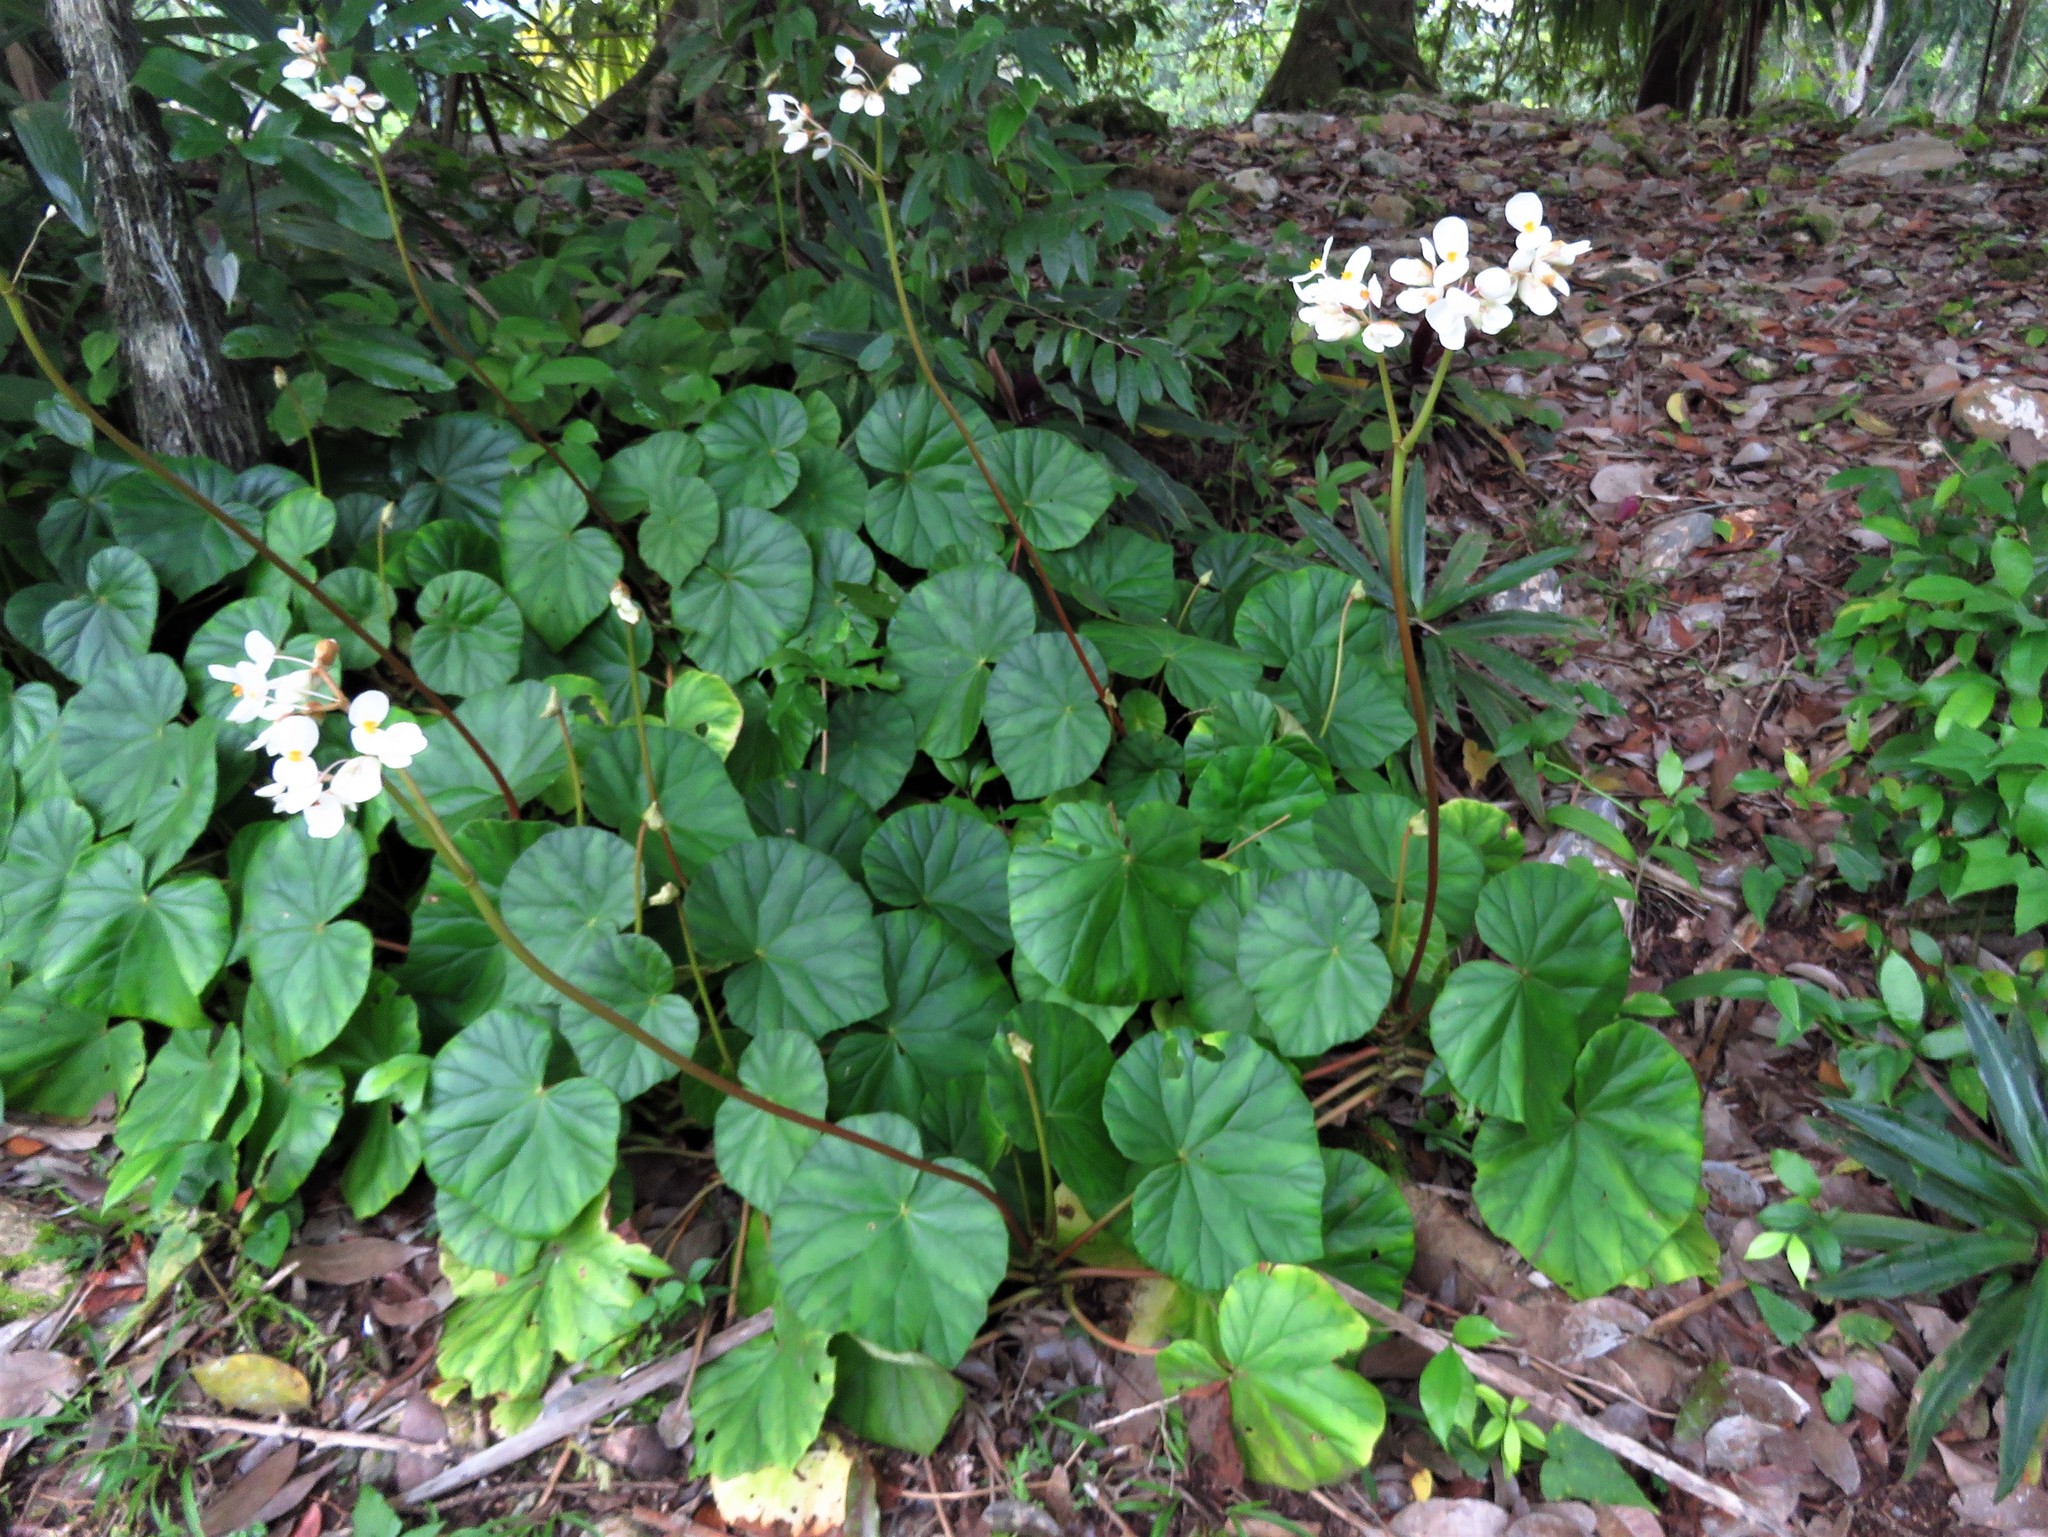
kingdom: Plantae
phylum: Tracheophyta
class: Magnoliopsida
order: Cucurbitales
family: Begoniaceae
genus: Begonia
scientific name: Begonia sericoneura
